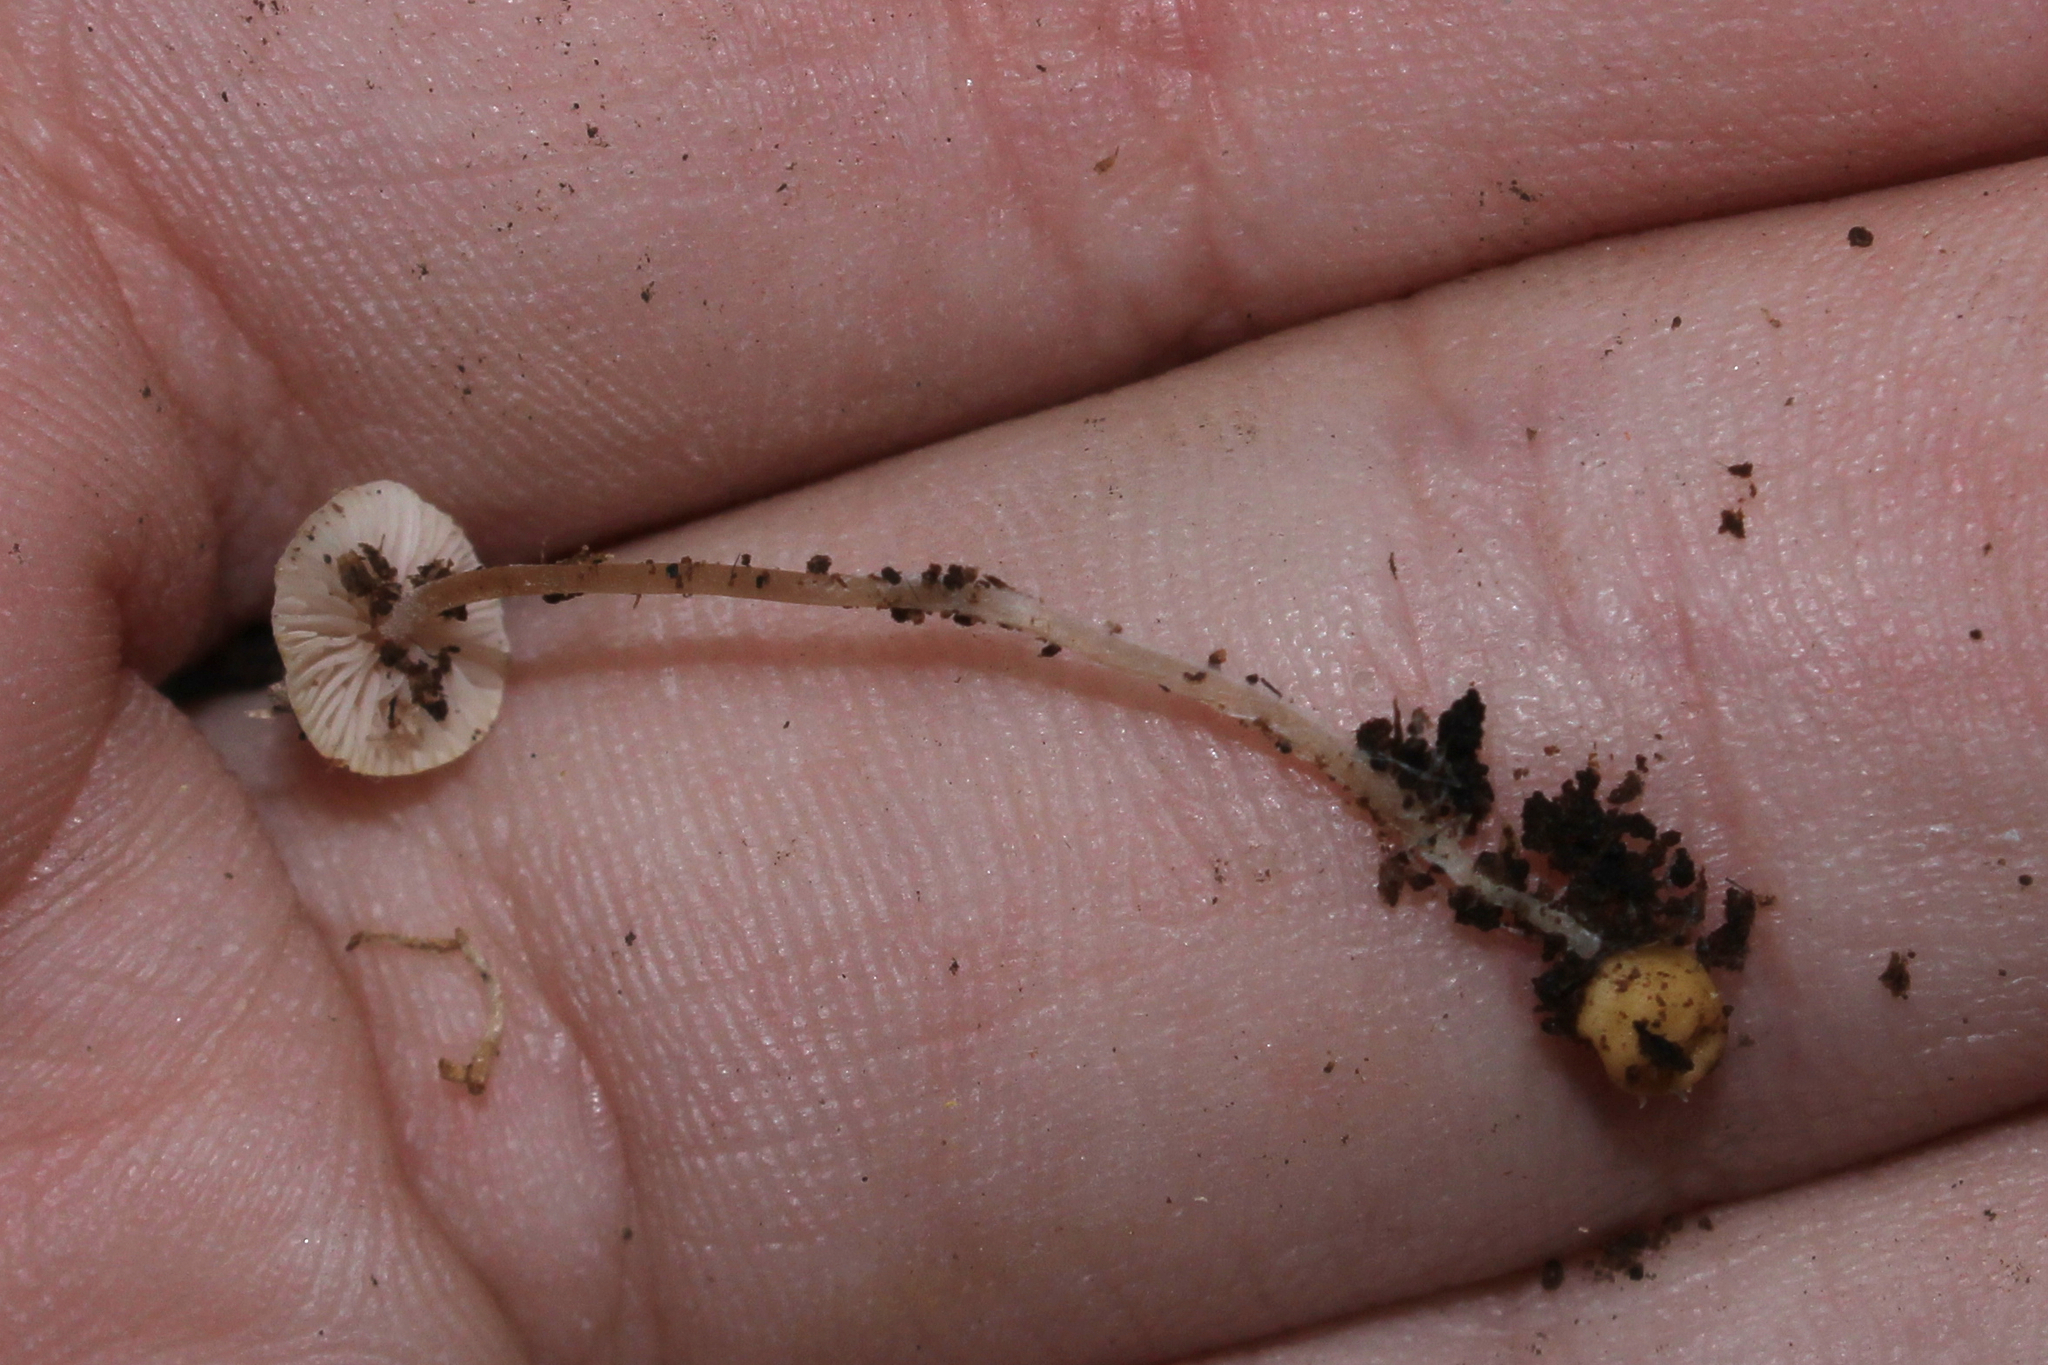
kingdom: Fungi
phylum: Basidiomycota
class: Agaricomycetes
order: Agaricales
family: Tricholomataceae
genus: Collybia
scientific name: Collybia cookei
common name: Splitpea shanklet
